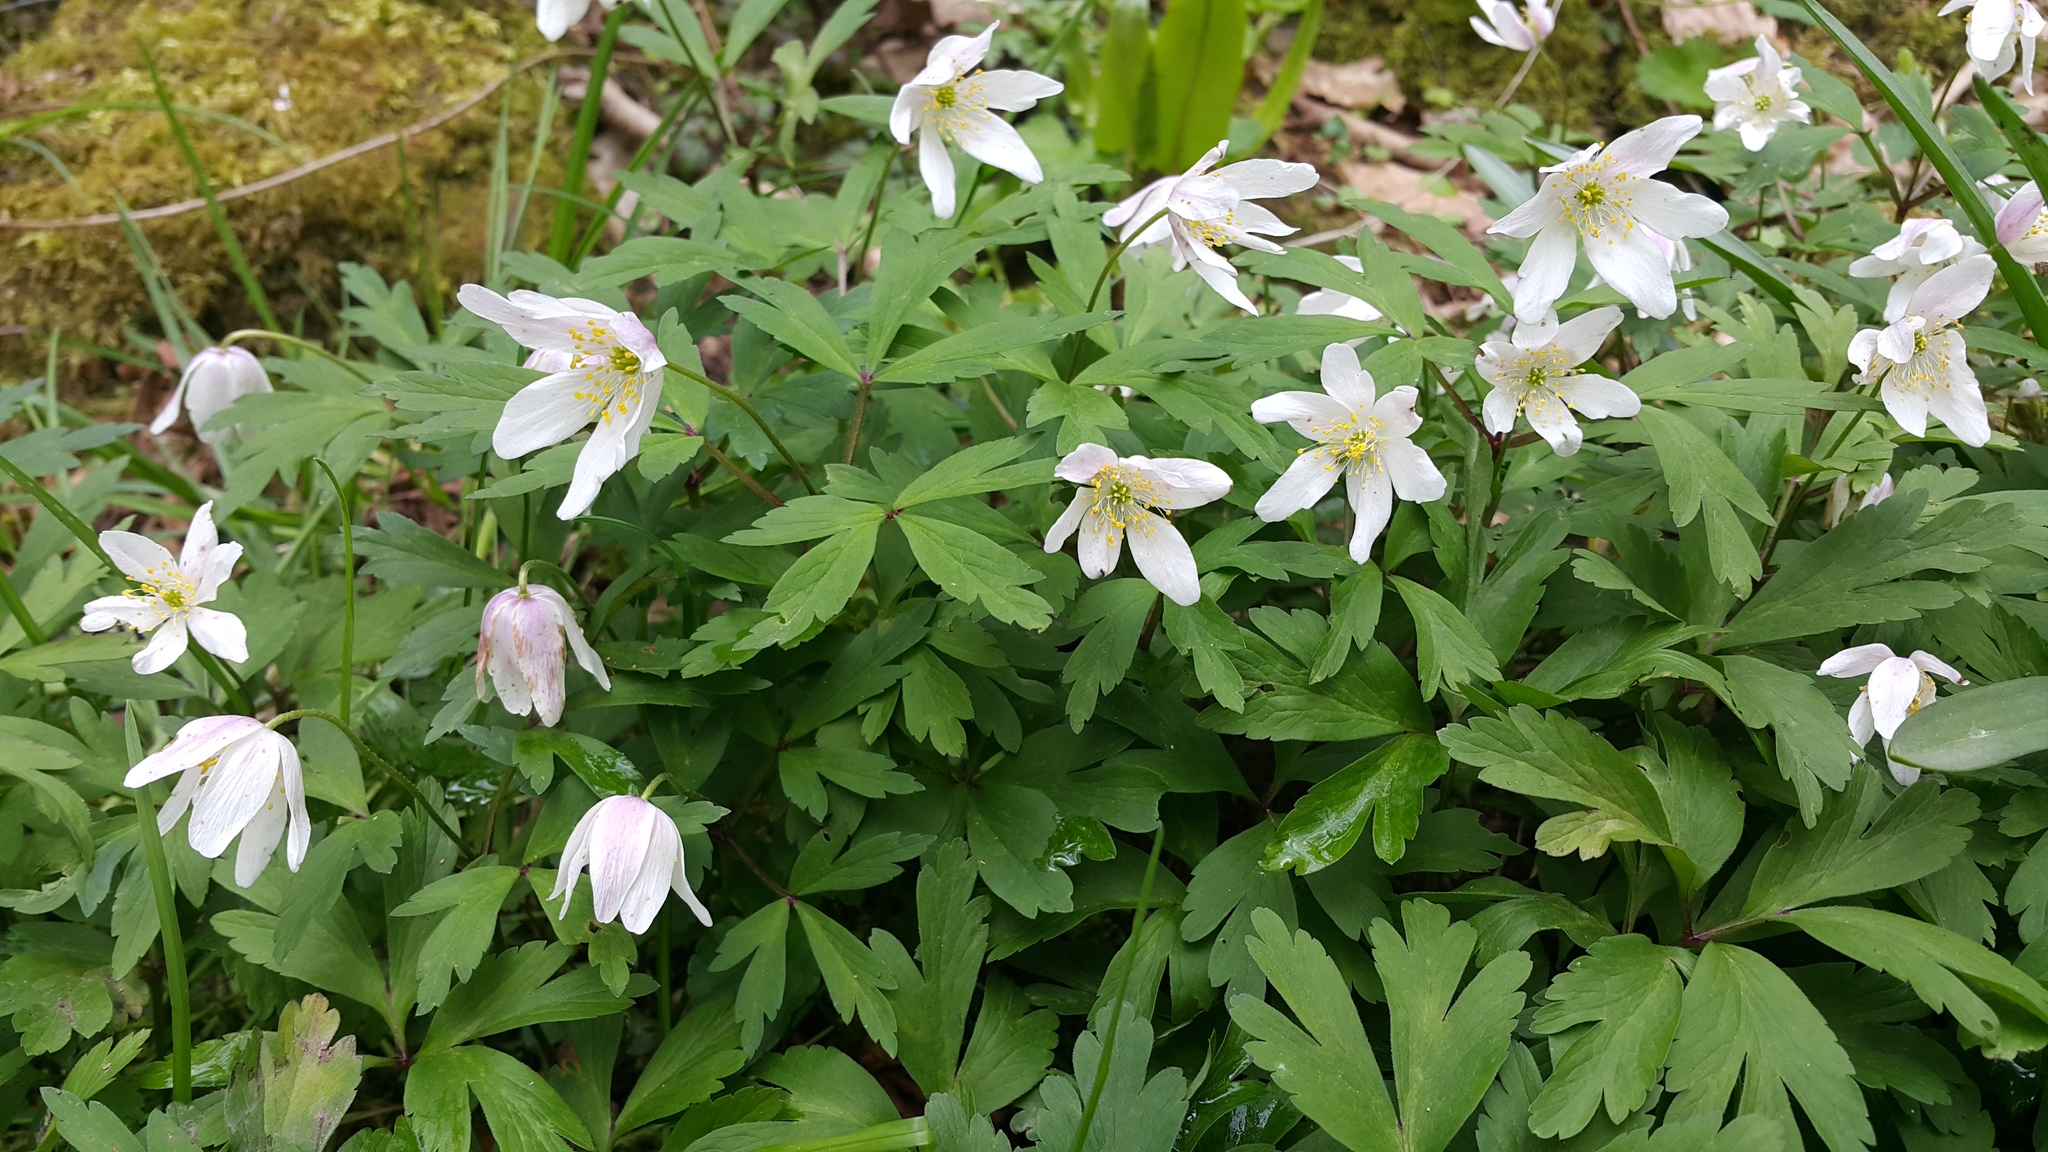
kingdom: Plantae
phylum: Tracheophyta
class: Magnoliopsida
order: Ranunculales
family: Ranunculaceae
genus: Anemone
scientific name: Anemone nemorosa
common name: Wood anemone
